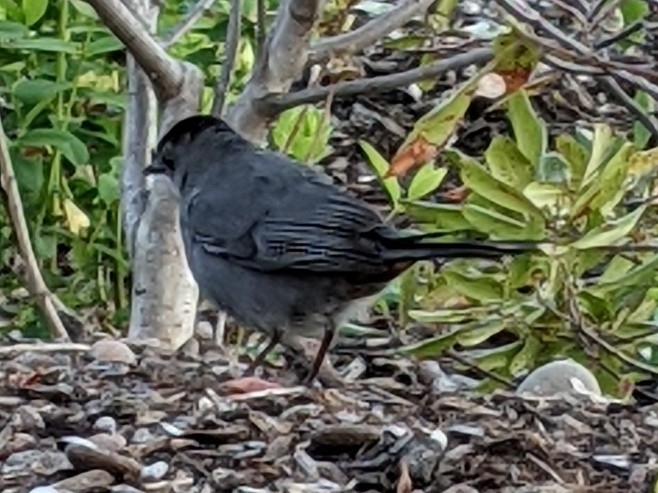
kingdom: Animalia
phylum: Chordata
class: Aves
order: Passeriformes
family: Mimidae
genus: Dumetella
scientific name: Dumetella carolinensis
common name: Gray catbird
